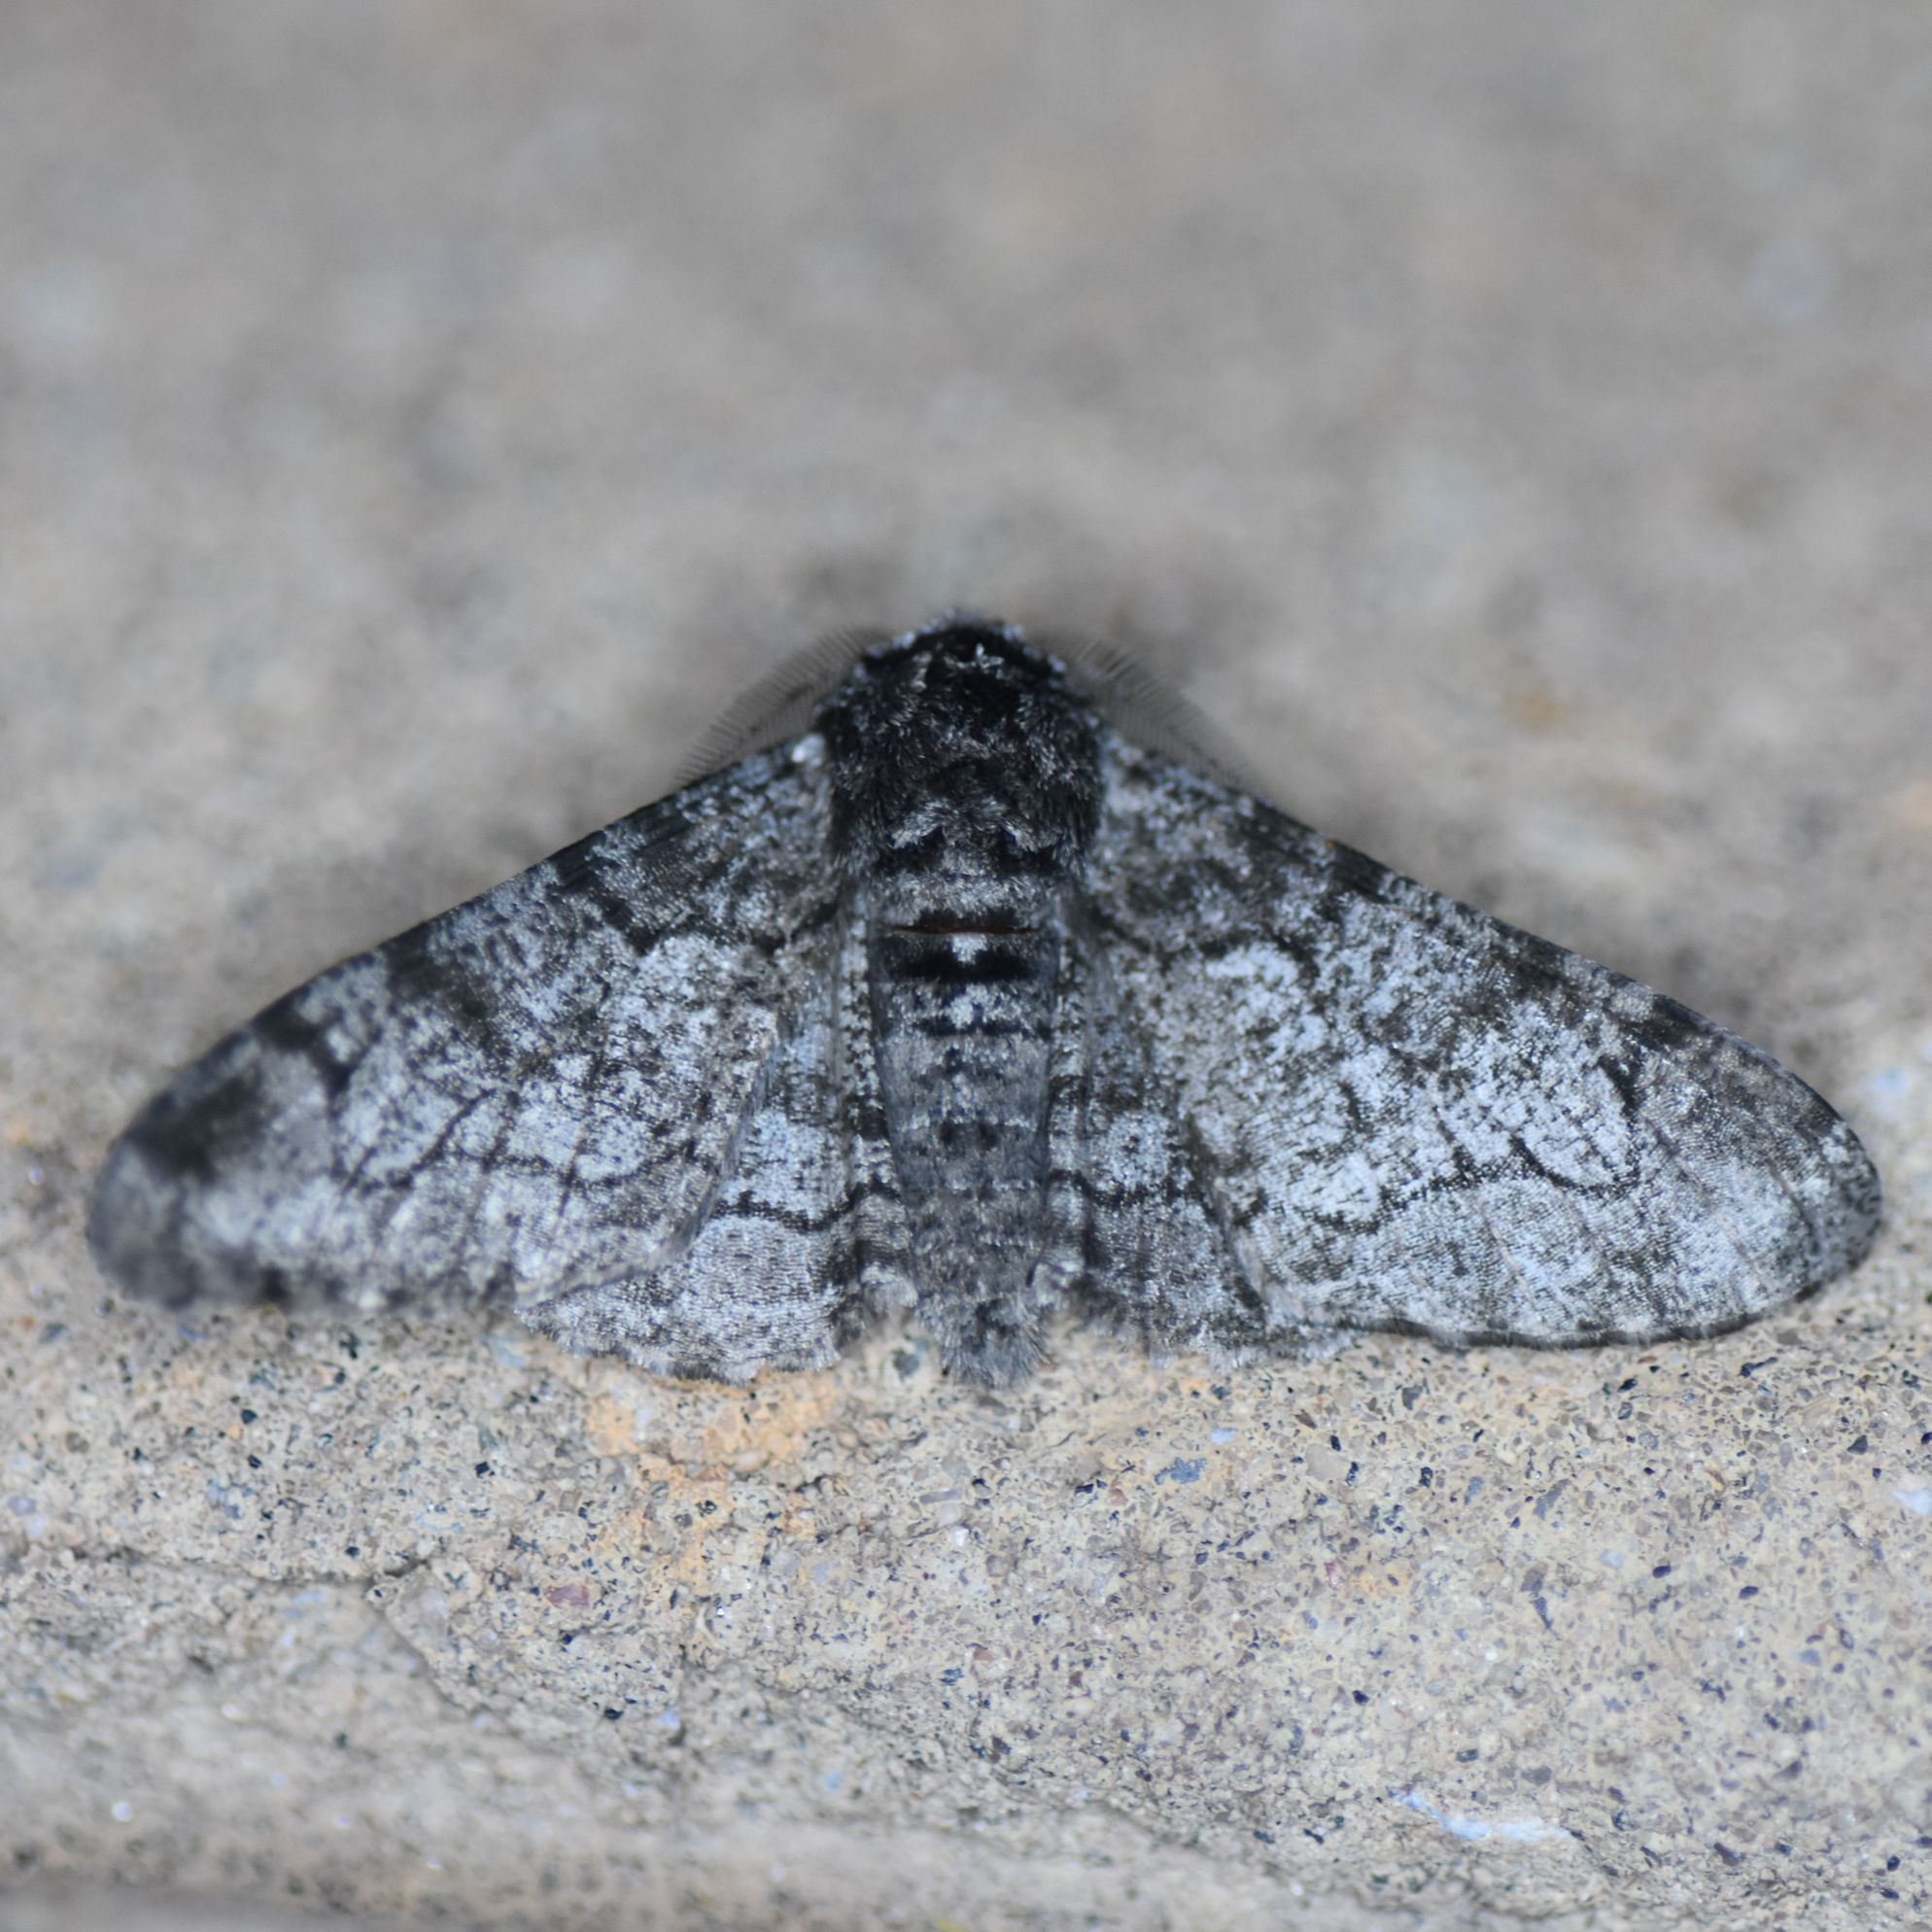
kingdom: Animalia
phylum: Arthropoda
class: Insecta
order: Lepidoptera
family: Geometridae
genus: Biston
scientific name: Biston betularia
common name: Peppered moth
